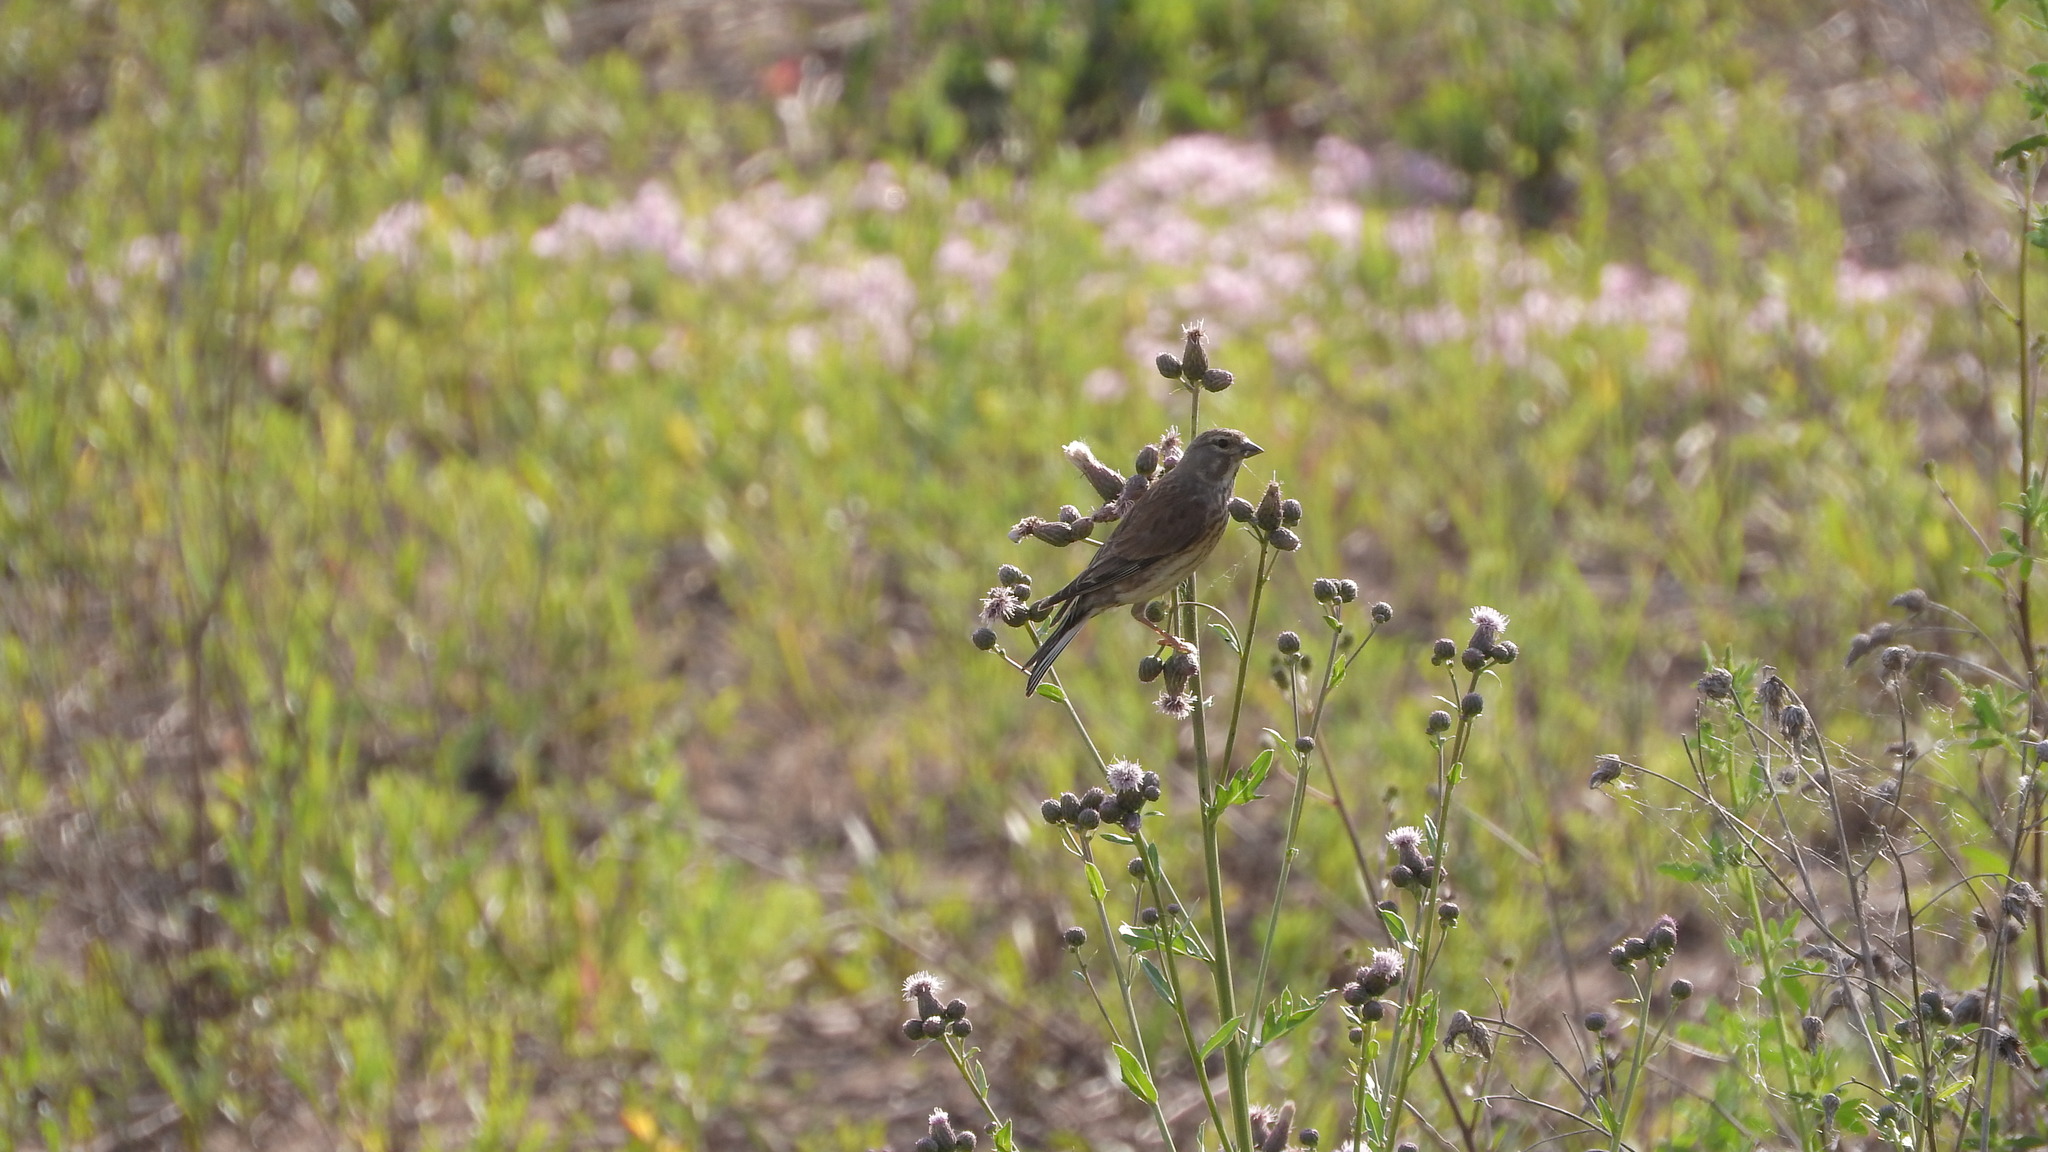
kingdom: Animalia
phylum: Chordata
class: Aves
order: Passeriformes
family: Fringillidae
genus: Linaria
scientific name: Linaria cannabina
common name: Common linnet
